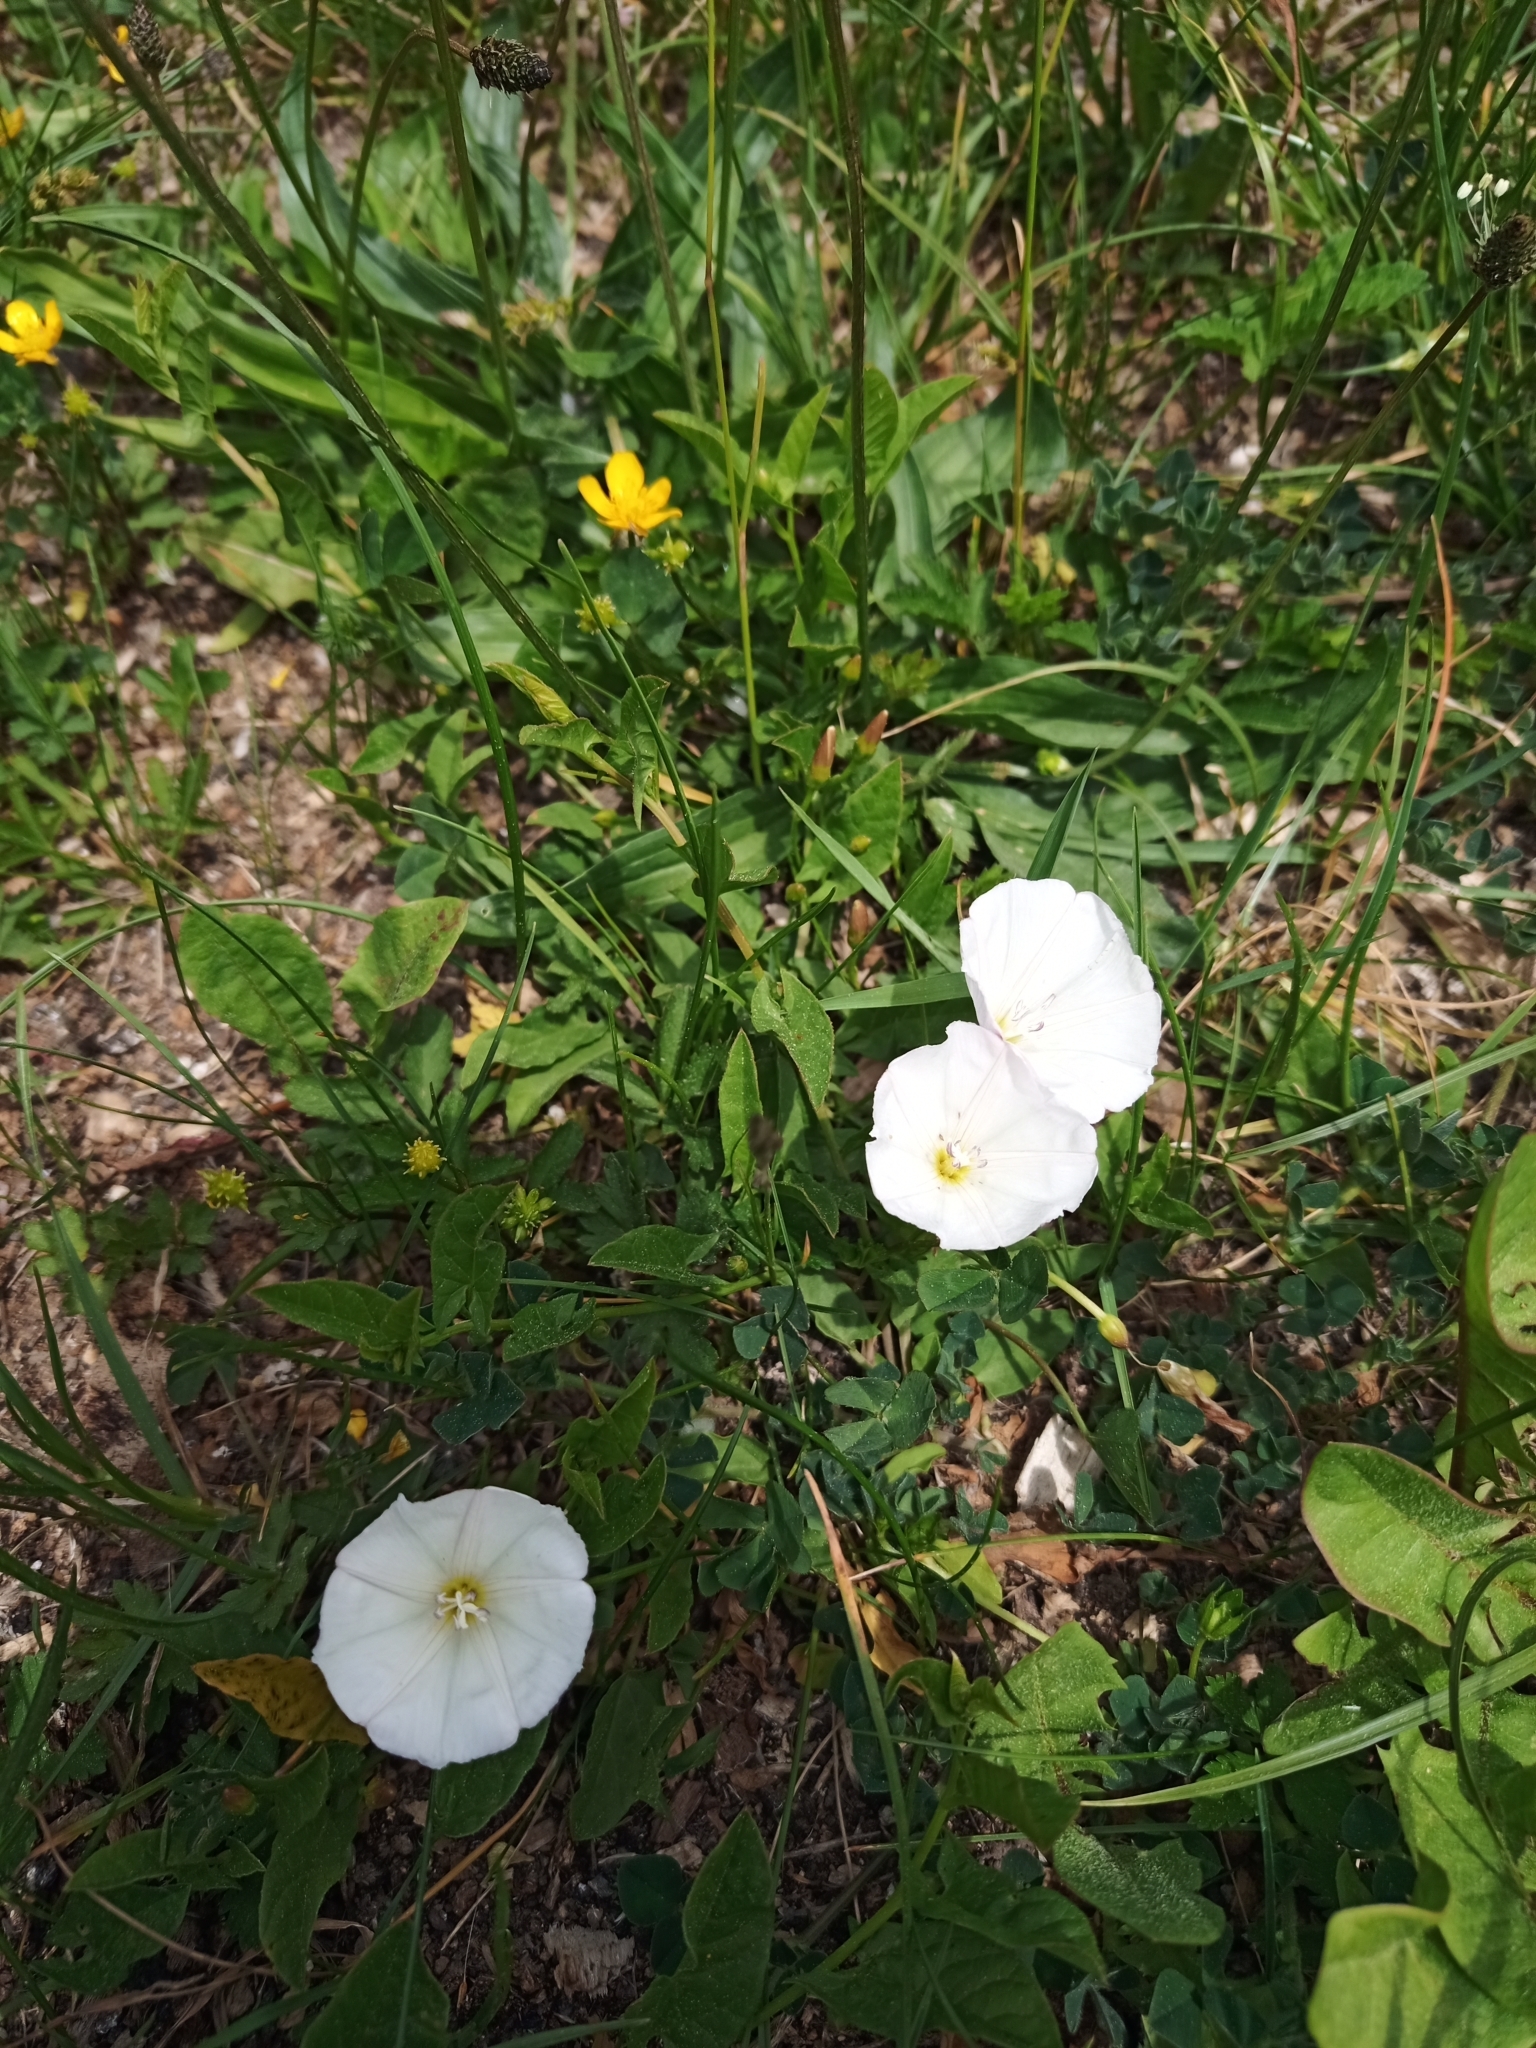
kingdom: Plantae
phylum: Tracheophyta
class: Magnoliopsida
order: Solanales
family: Convolvulaceae
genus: Convolvulus
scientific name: Convolvulus arvensis
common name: Field bindweed
